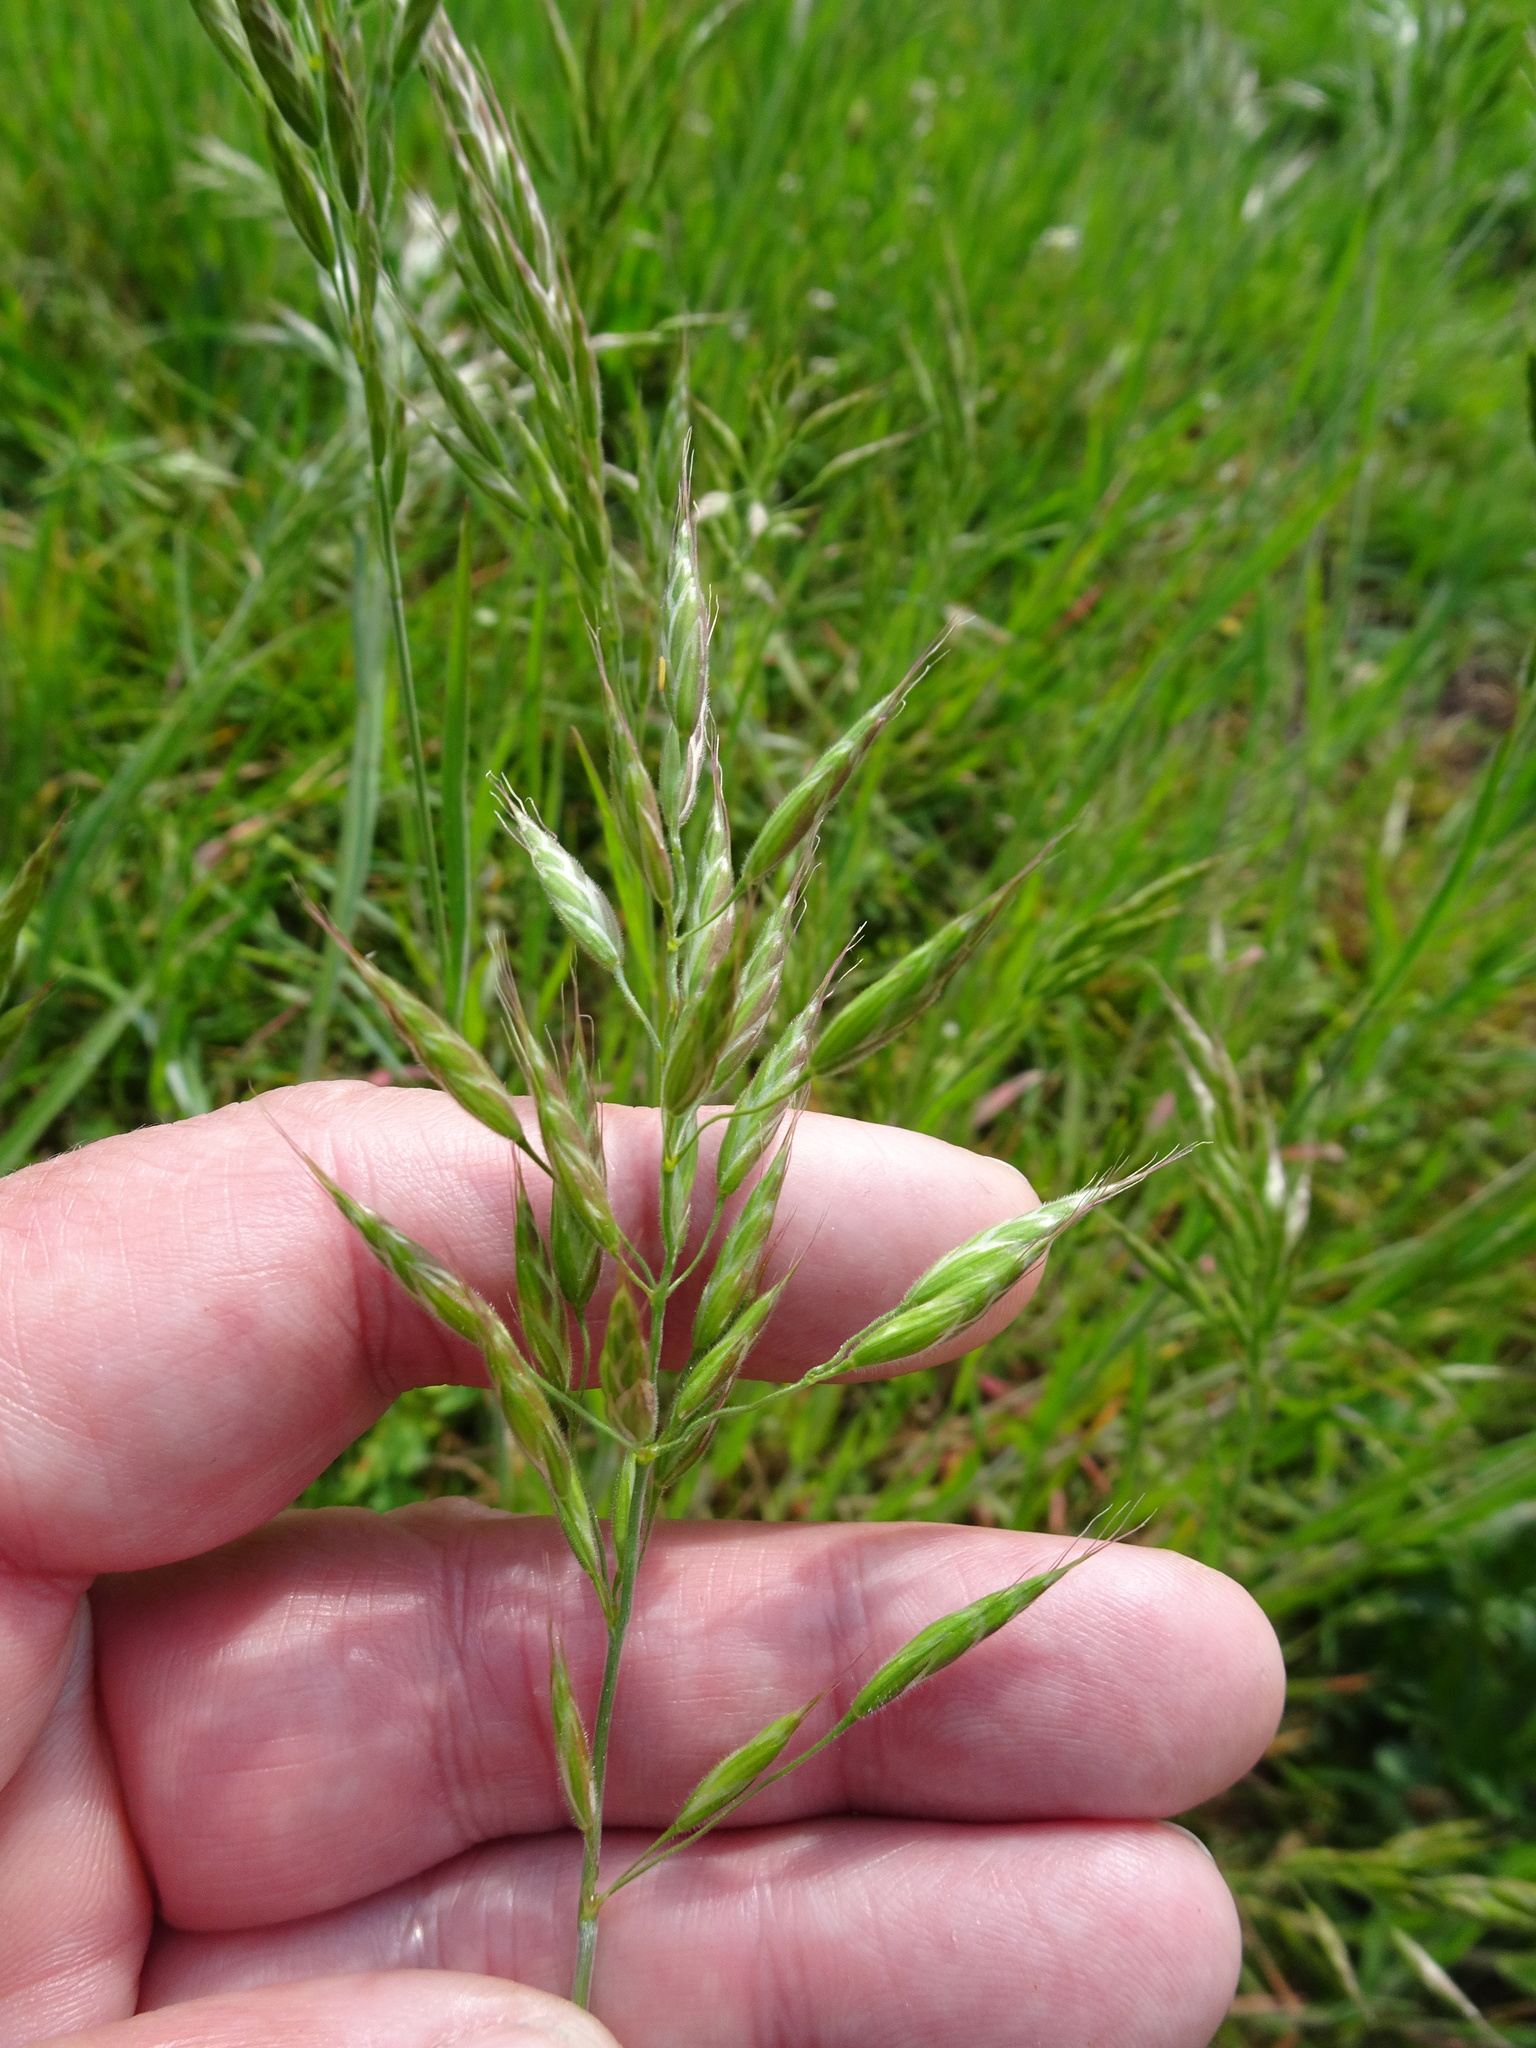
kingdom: Plantae
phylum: Tracheophyta
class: Liliopsida
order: Poales
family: Poaceae
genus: Bromus
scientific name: Bromus hordeaceus
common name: Soft brome
